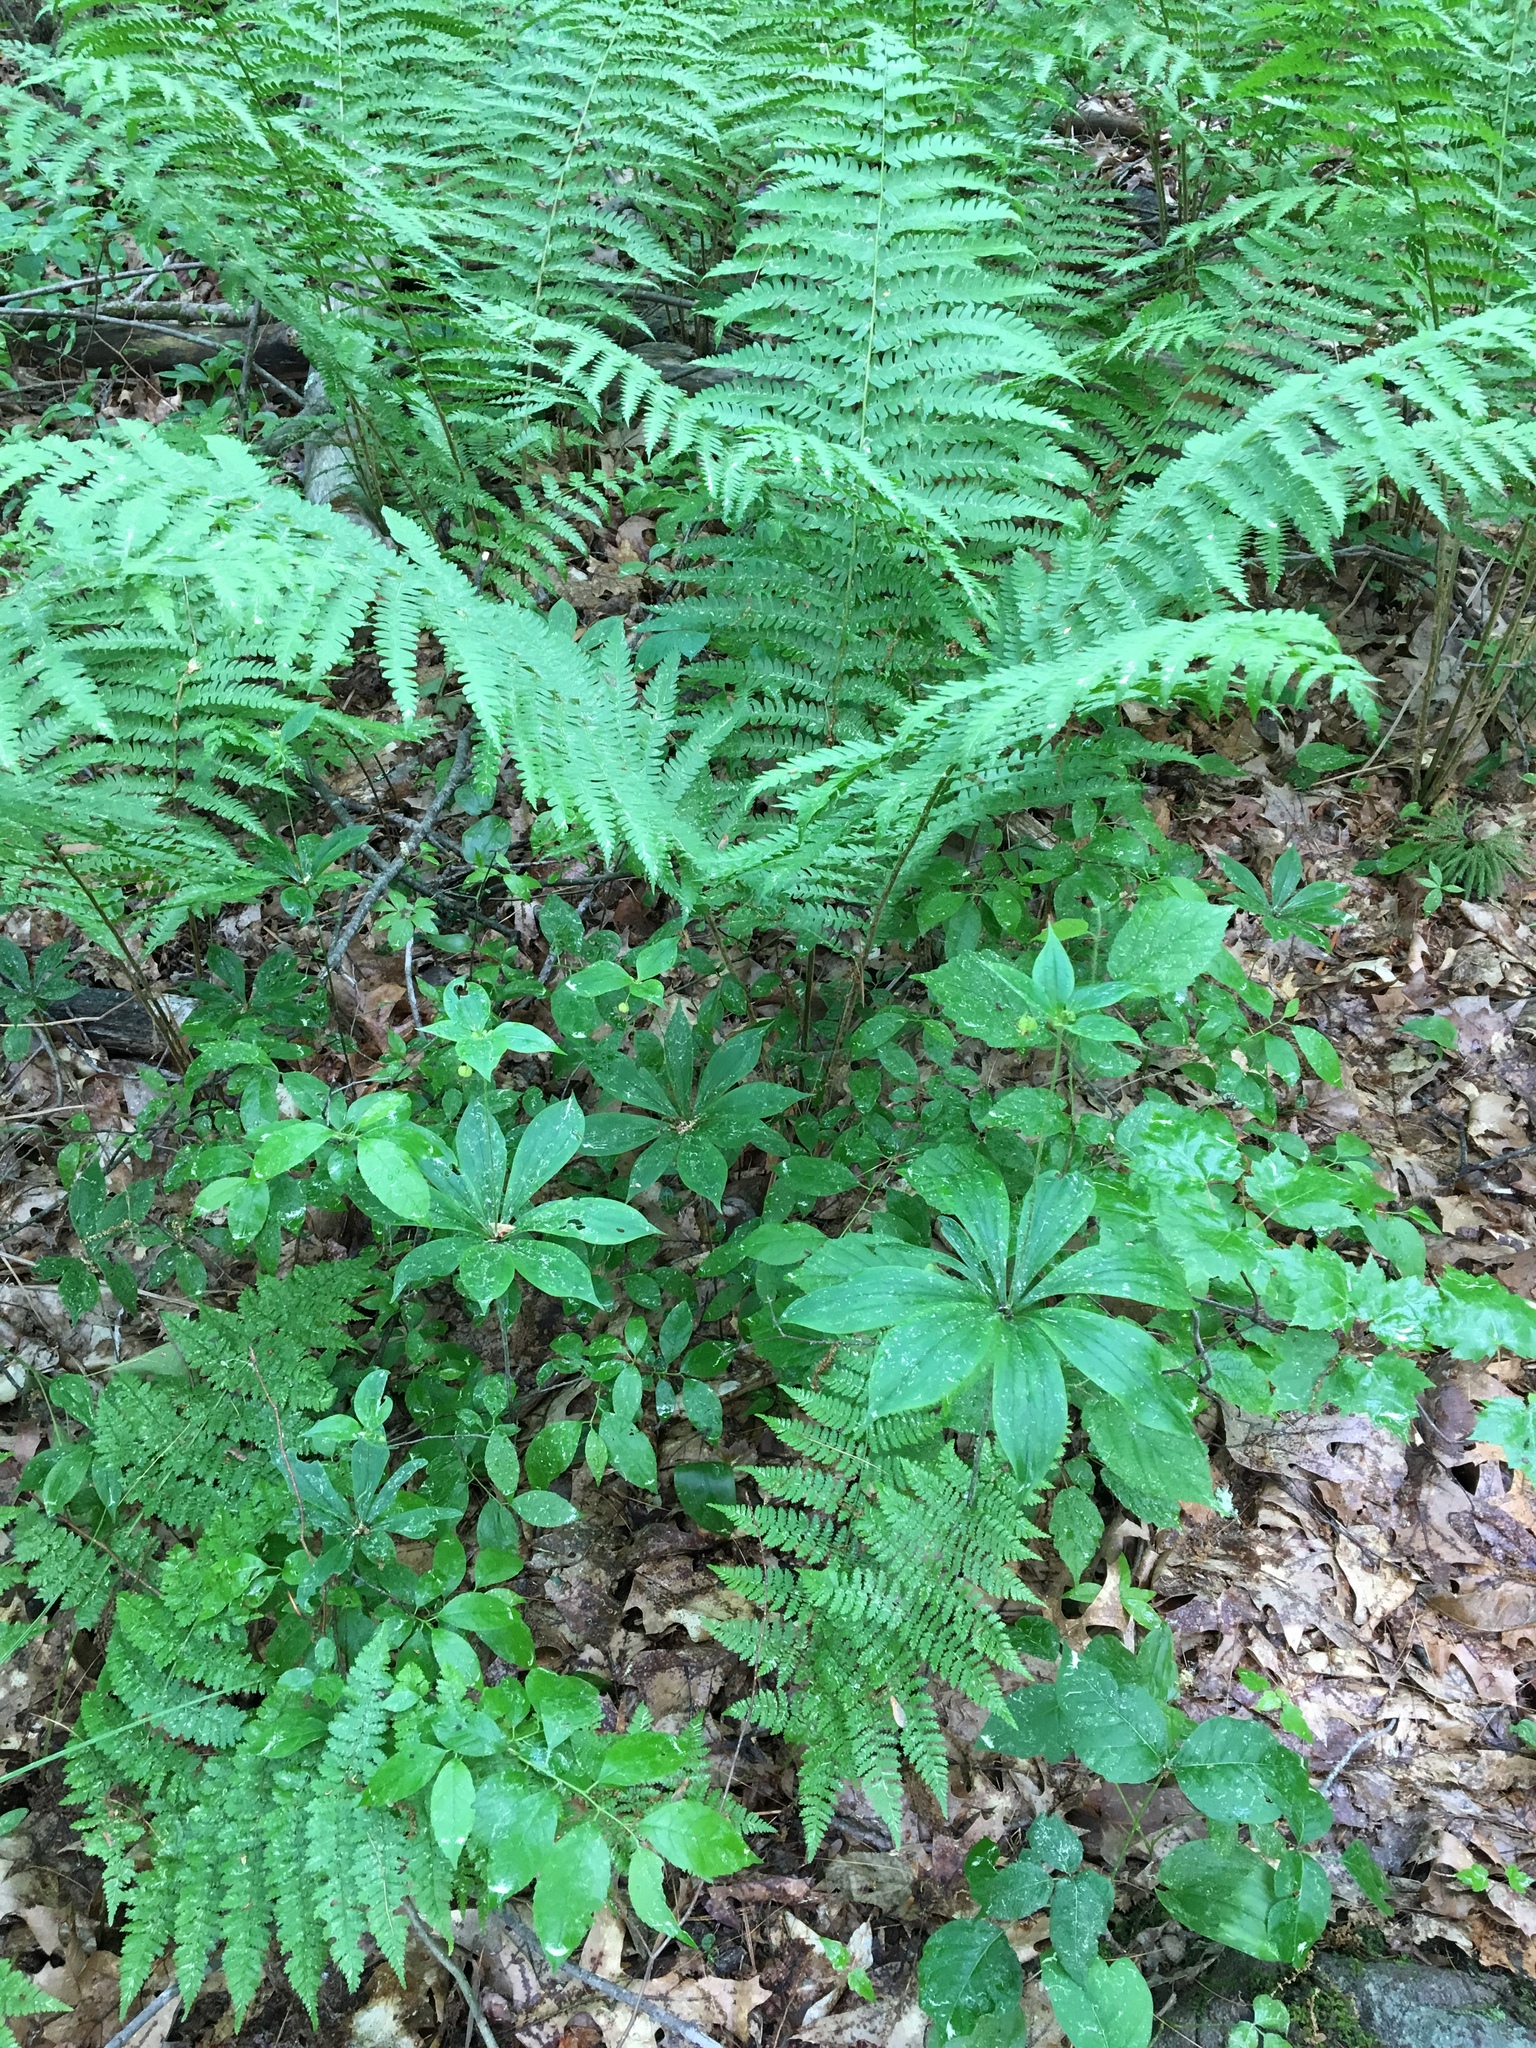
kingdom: Plantae
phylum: Tracheophyta
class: Liliopsida
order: Liliales
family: Liliaceae
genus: Medeola
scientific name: Medeola virginiana
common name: Indian cucumber-root
